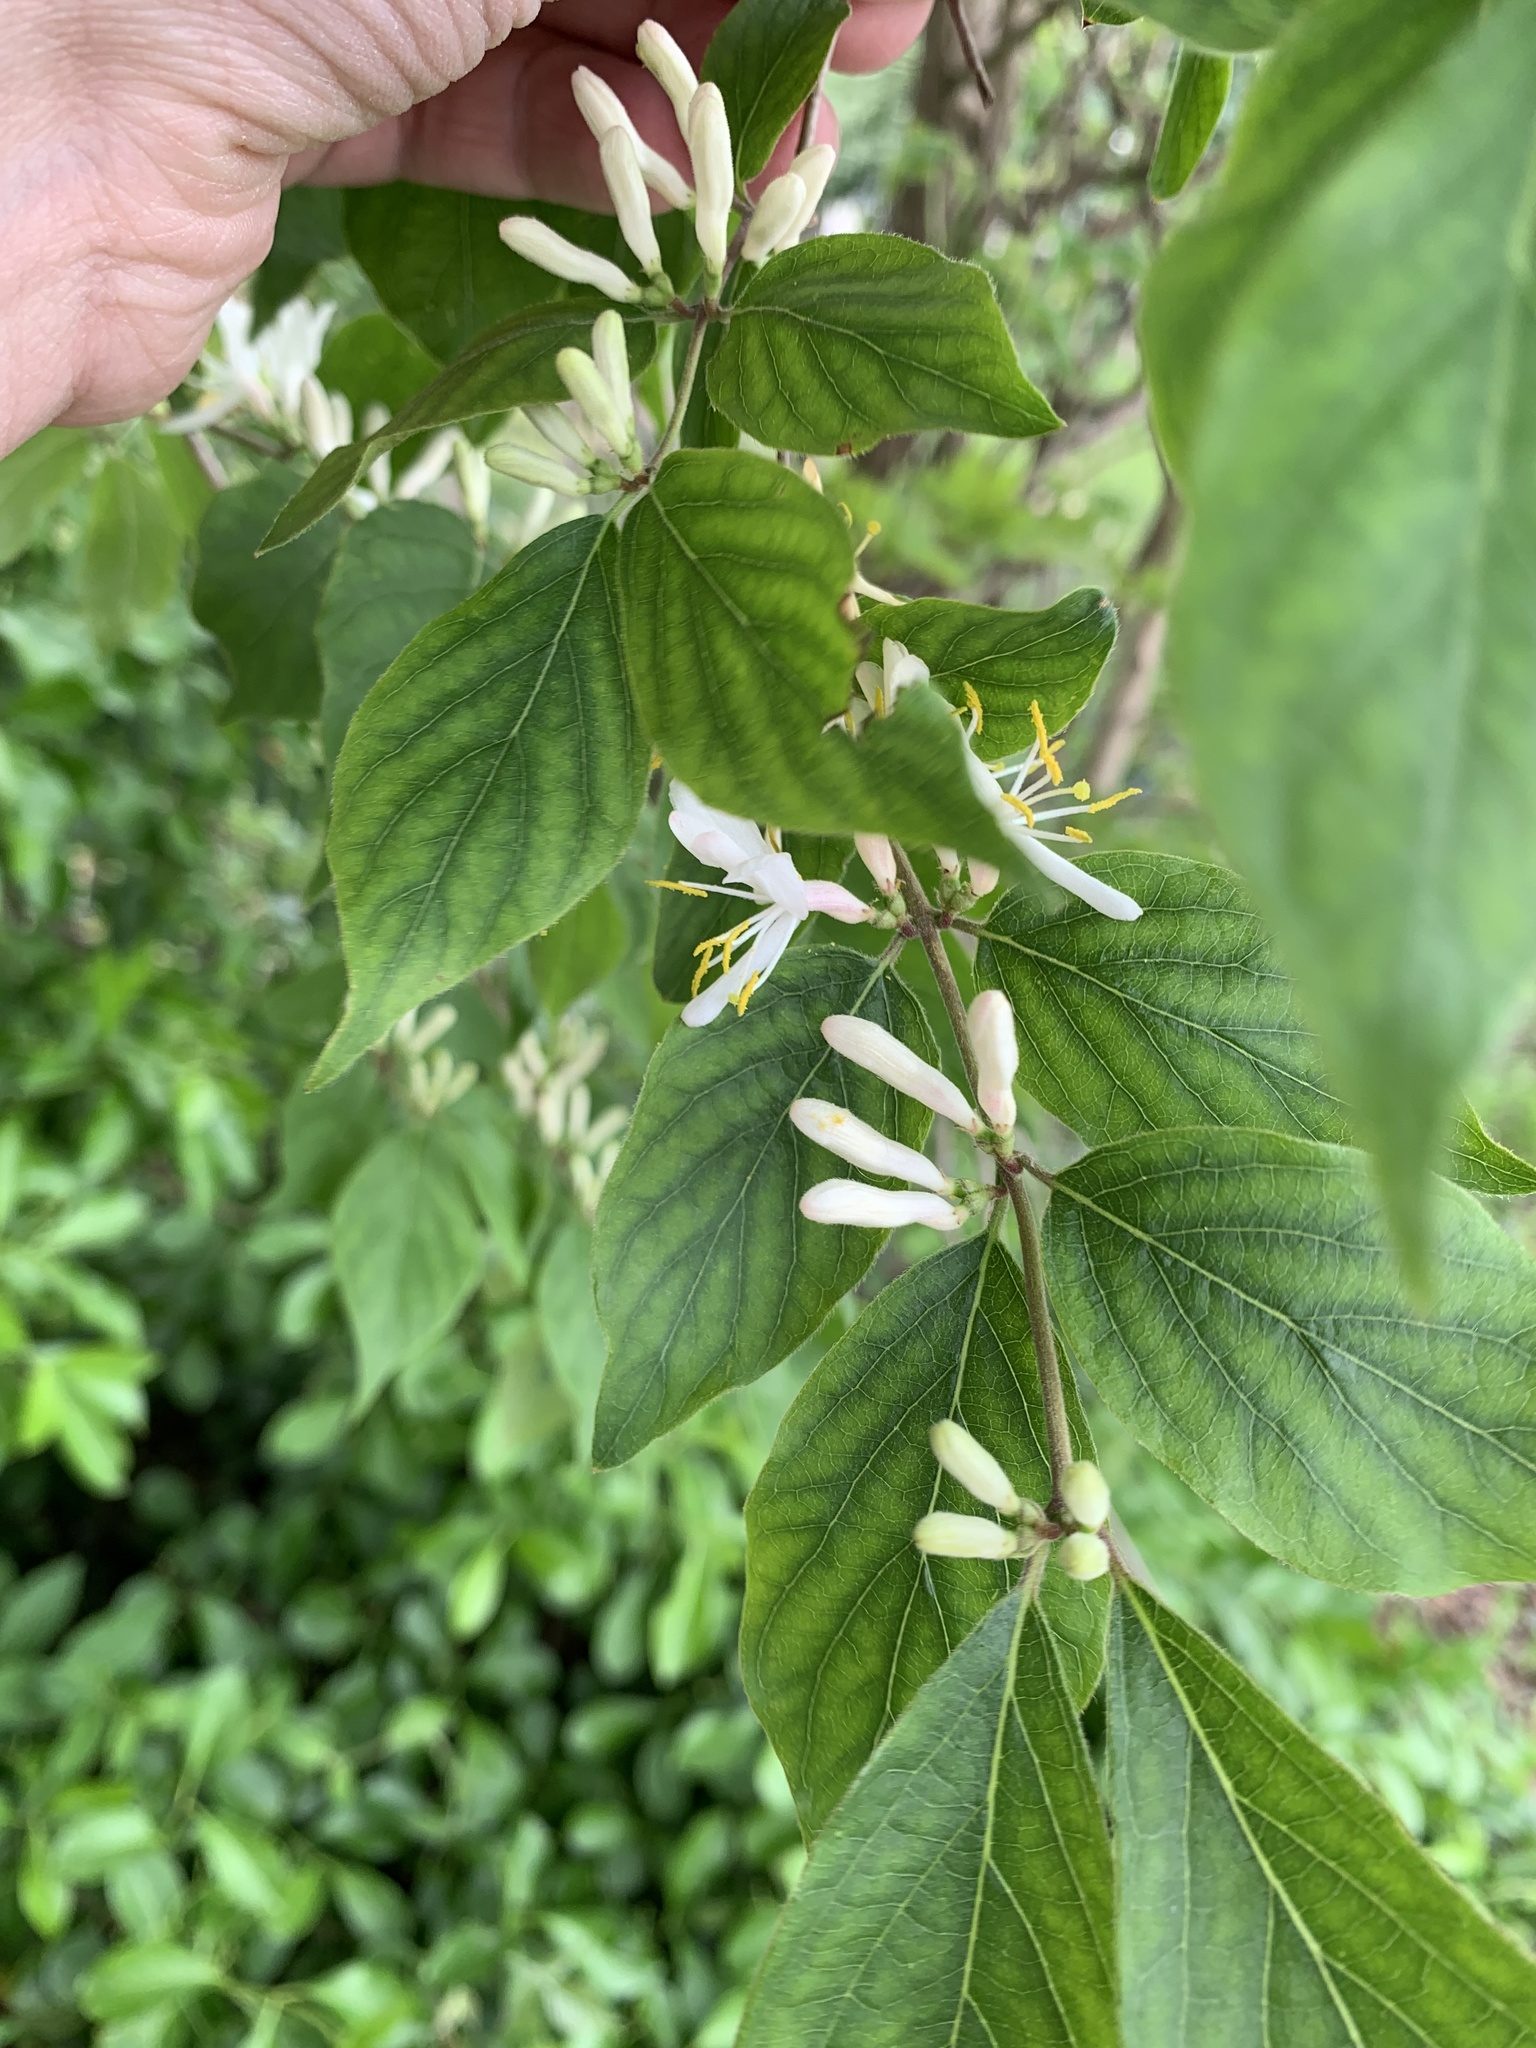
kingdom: Plantae
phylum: Tracheophyta
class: Magnoliopsida
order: Dipsacales
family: Caprifoliaceae
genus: Lonicera
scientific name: Lonicera maackii
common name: Amur honeysuckle
